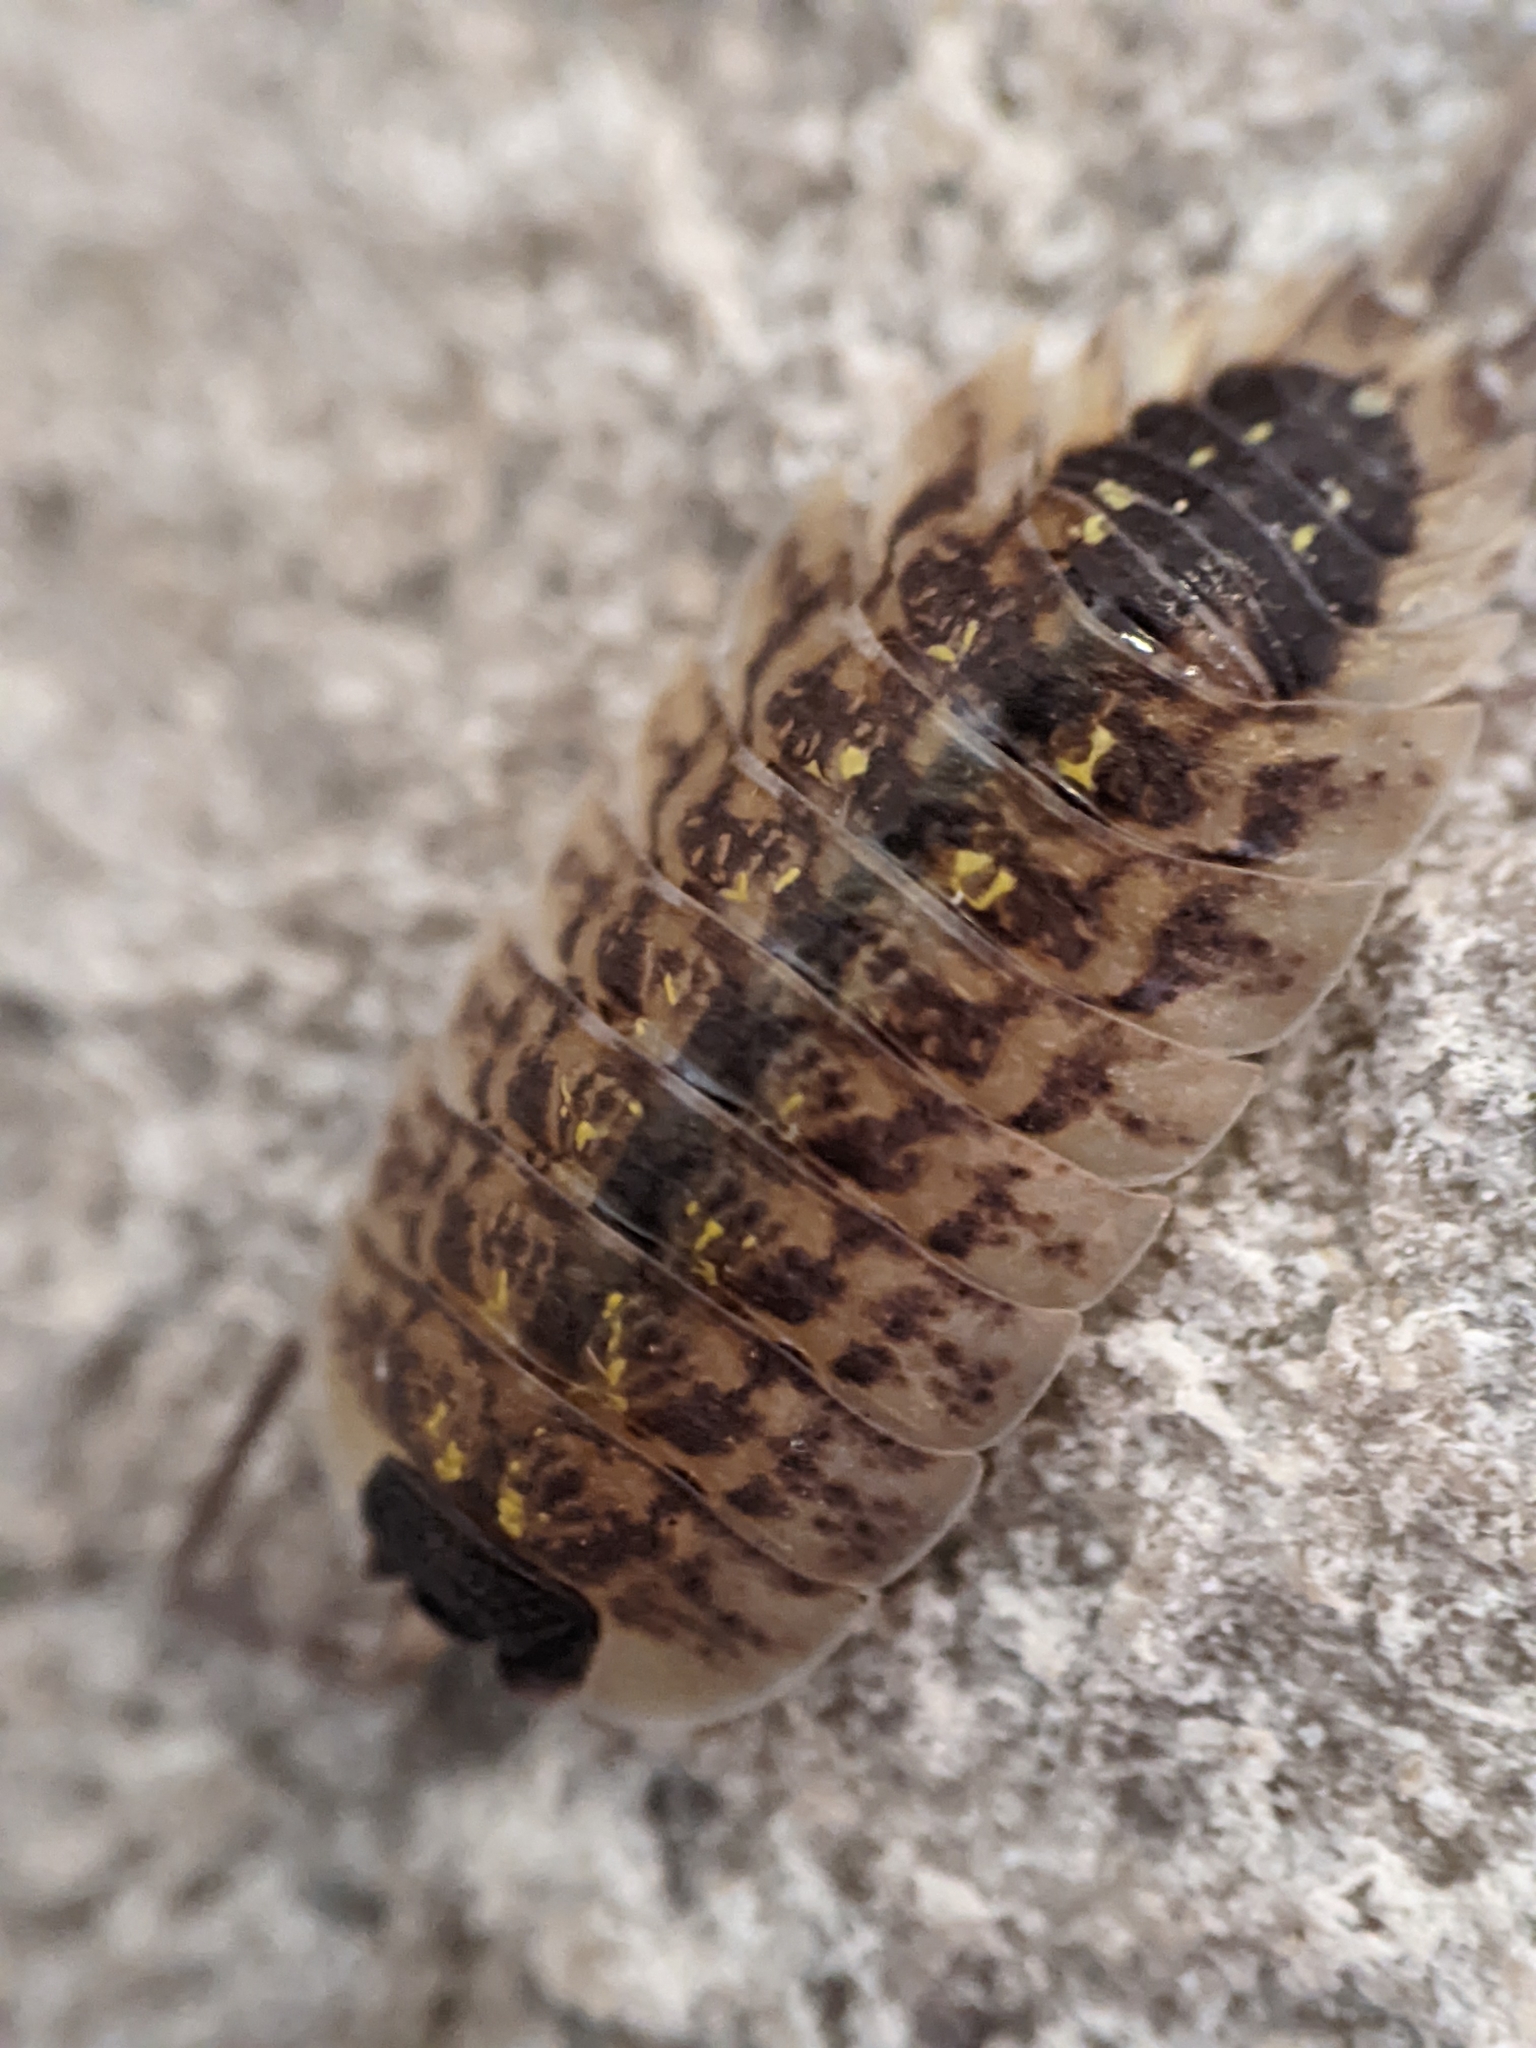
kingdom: Animalia
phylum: Arthropoda
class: Malacostraca
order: Isopoda
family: Porcellionidae
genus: Porcellio
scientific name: Porcellio spinicornis
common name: Painted woodlouse
